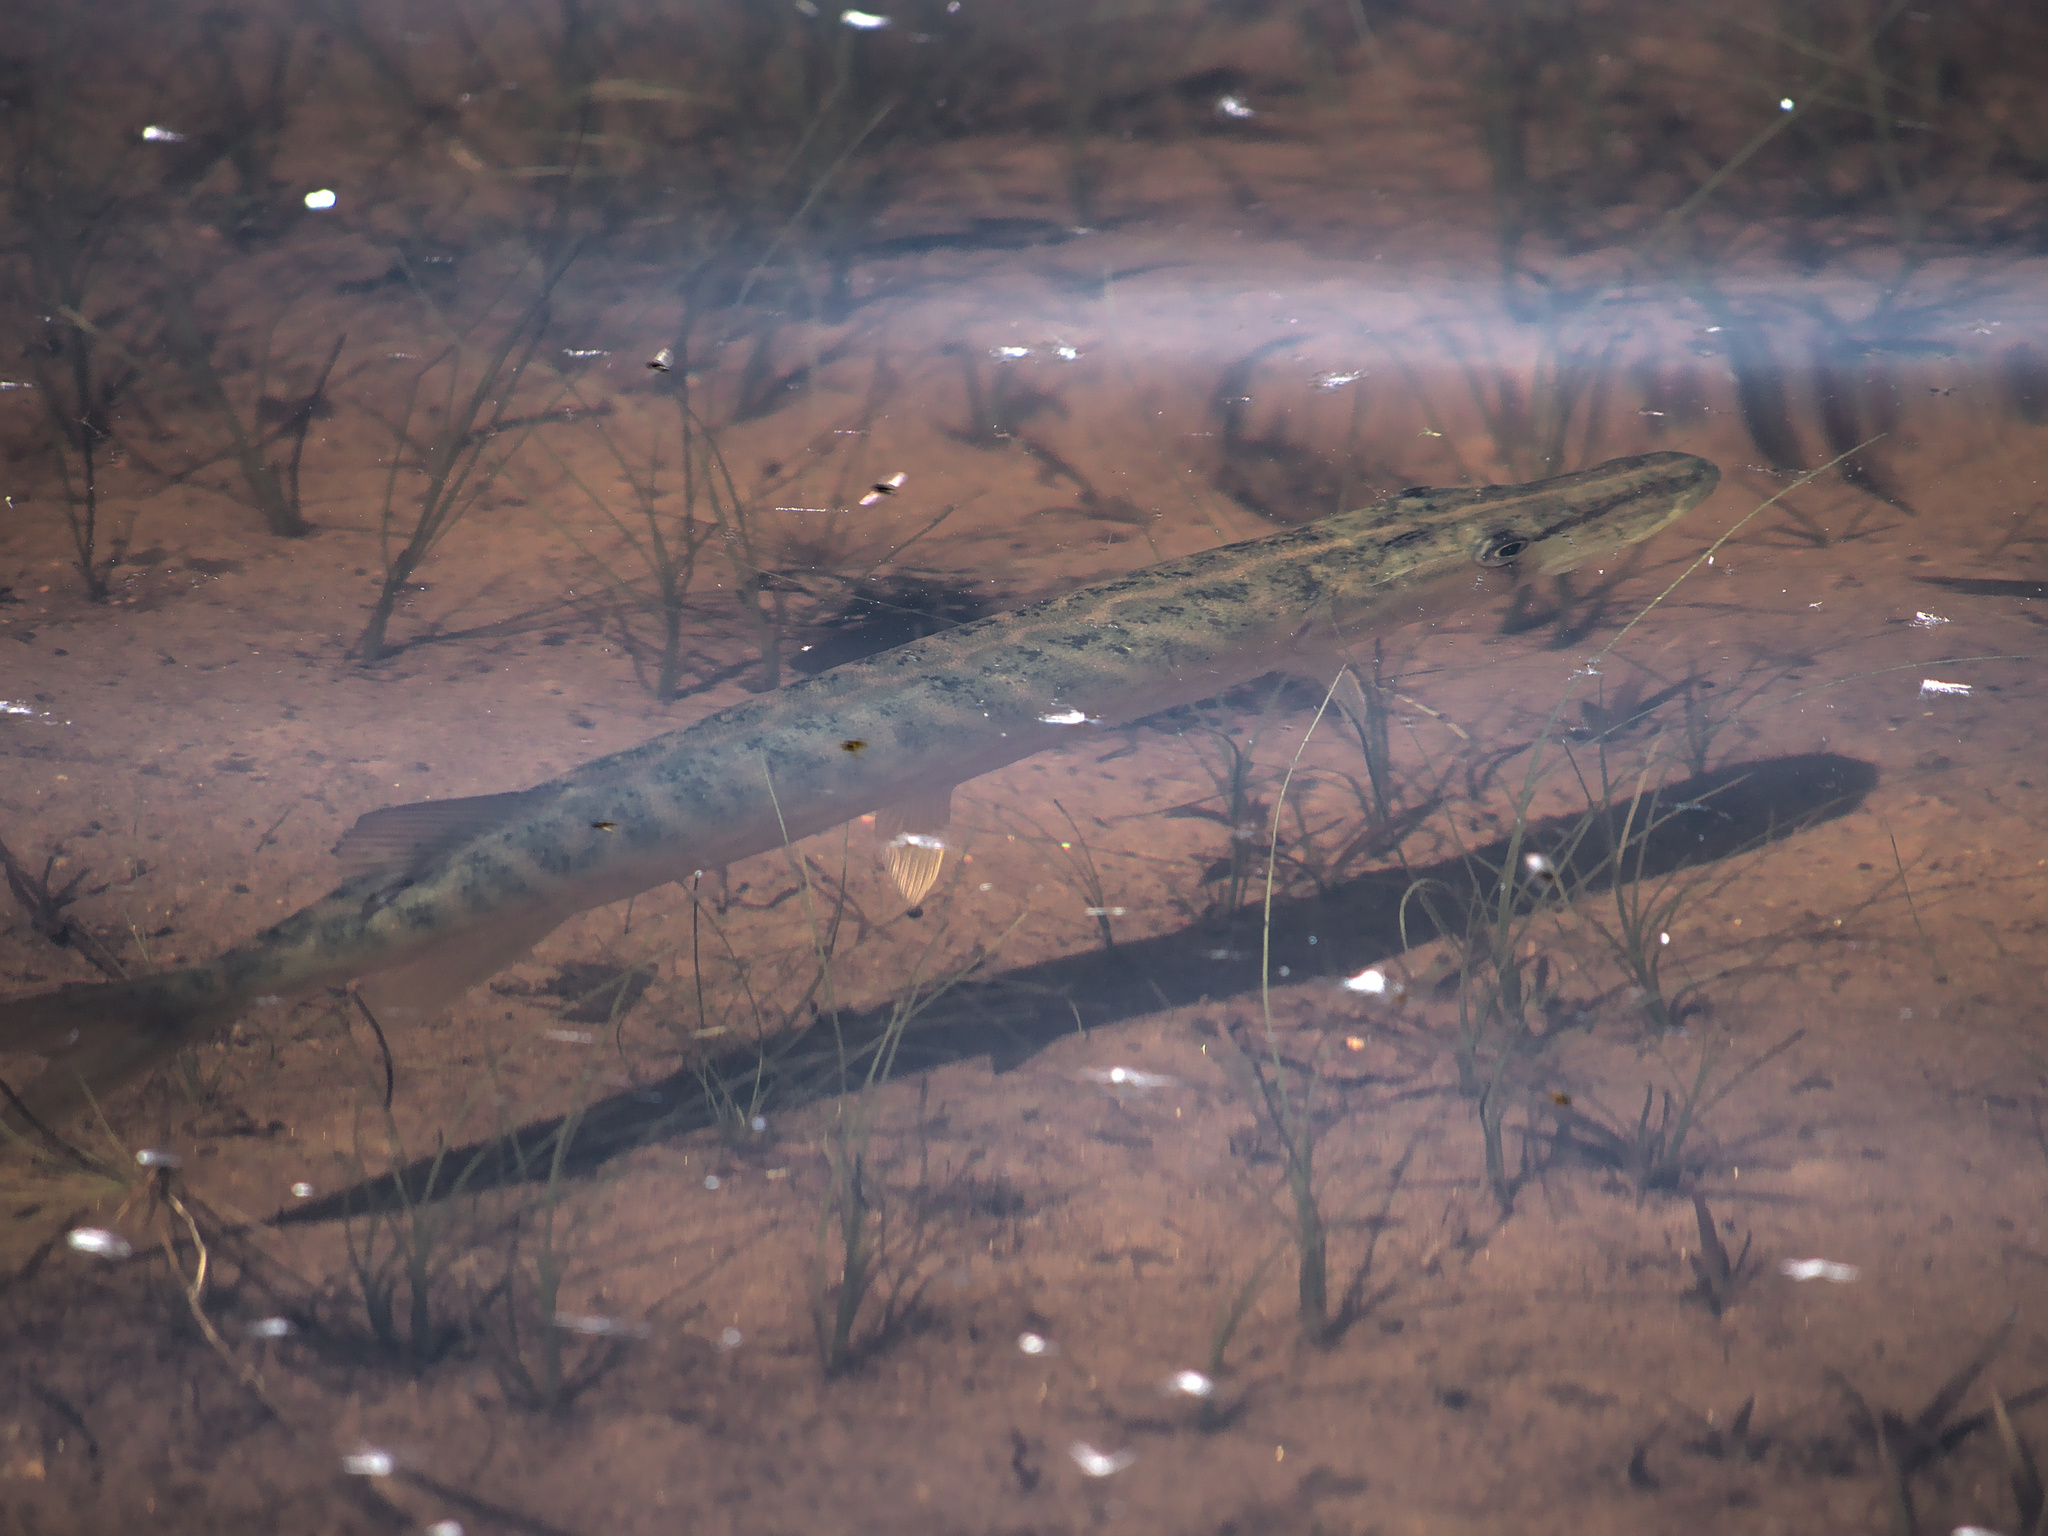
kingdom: Animalia
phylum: Chordata
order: Esociformes
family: Esocidae
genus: Esox
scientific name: Esox niger
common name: Chain pickerel
